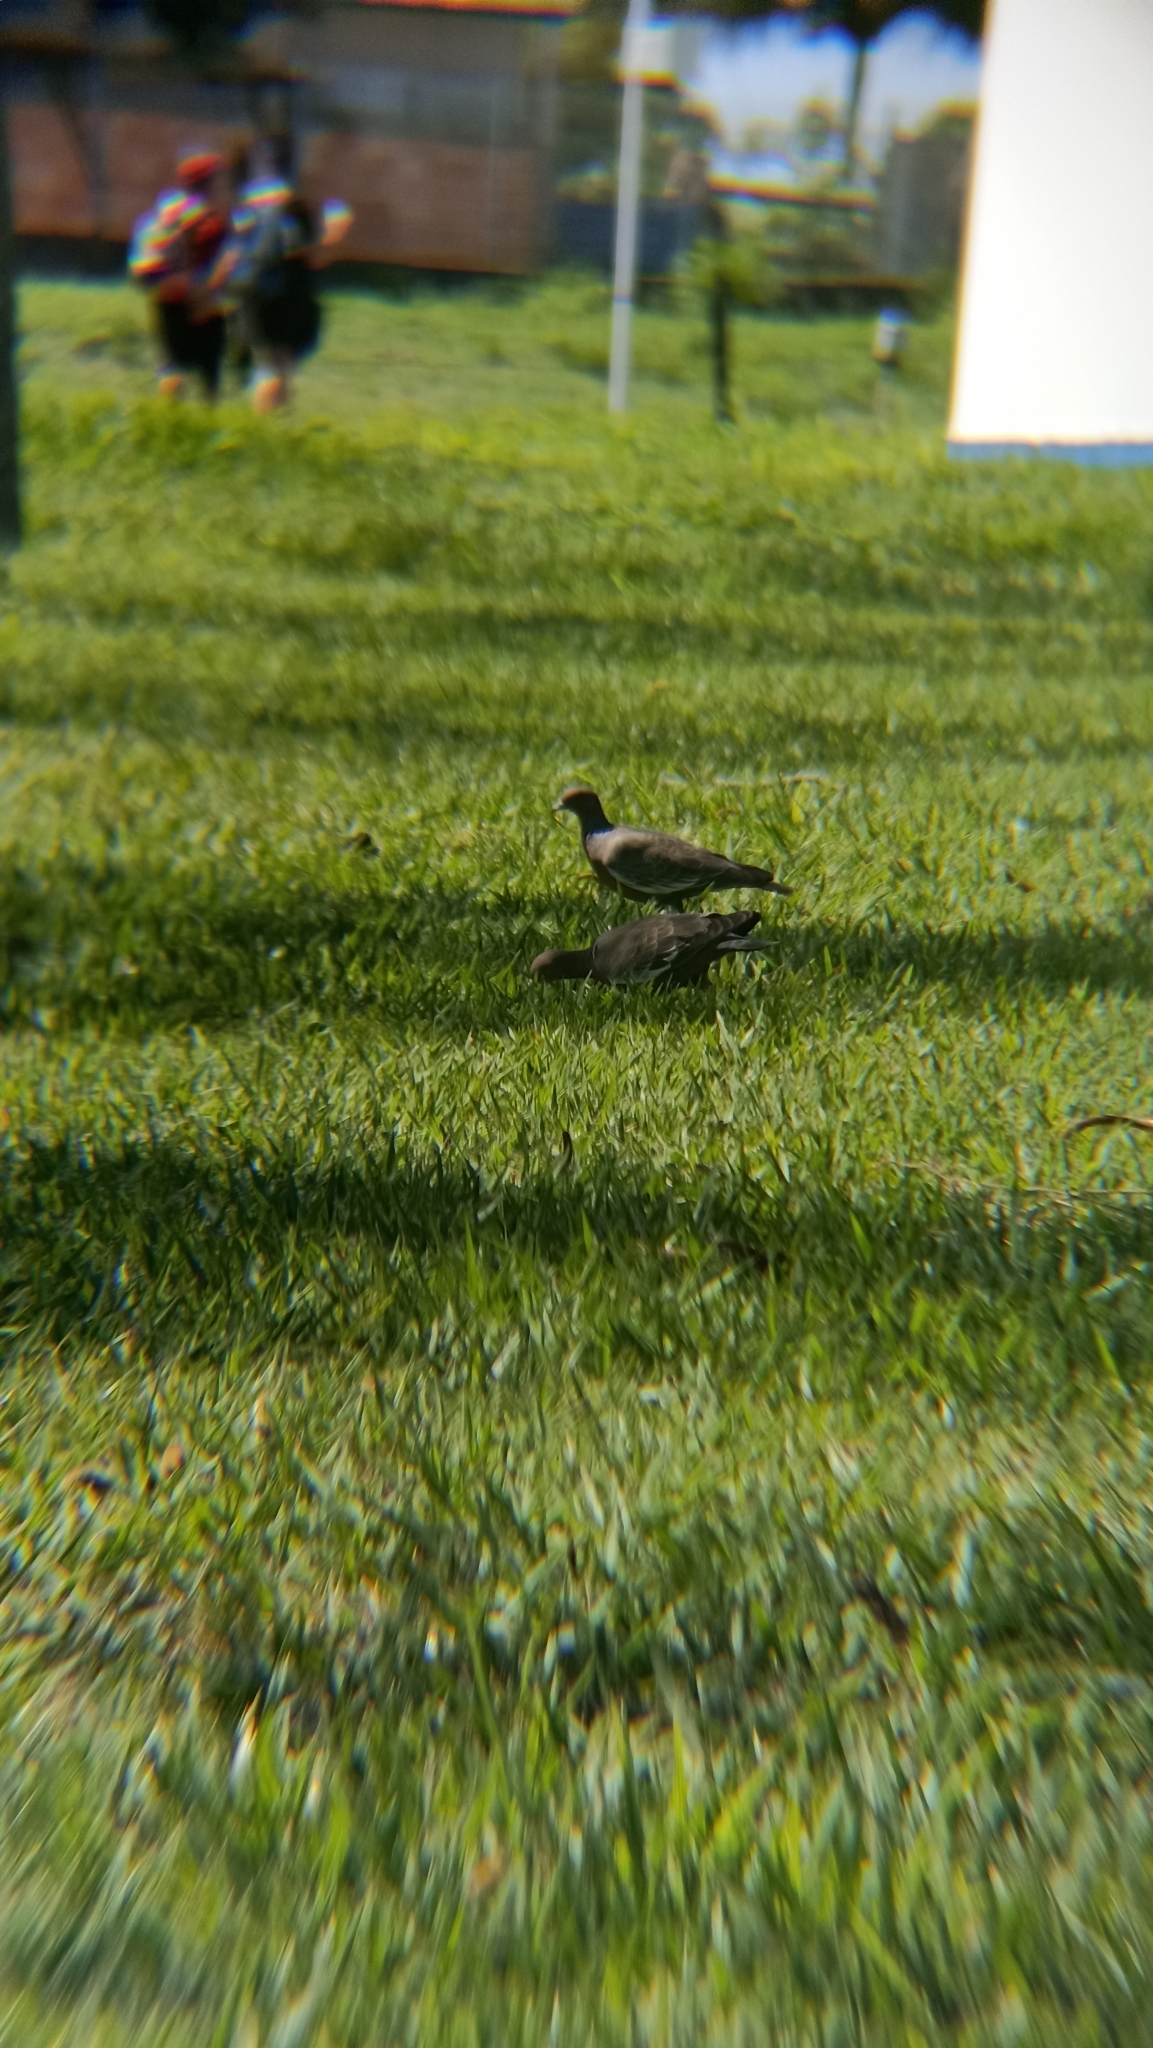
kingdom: Animalia
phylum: Chordata
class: Aves
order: Columbiformes
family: Columbidae
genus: Patagioenas
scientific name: Patagioenas picazuro
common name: Picazuro pigeon
